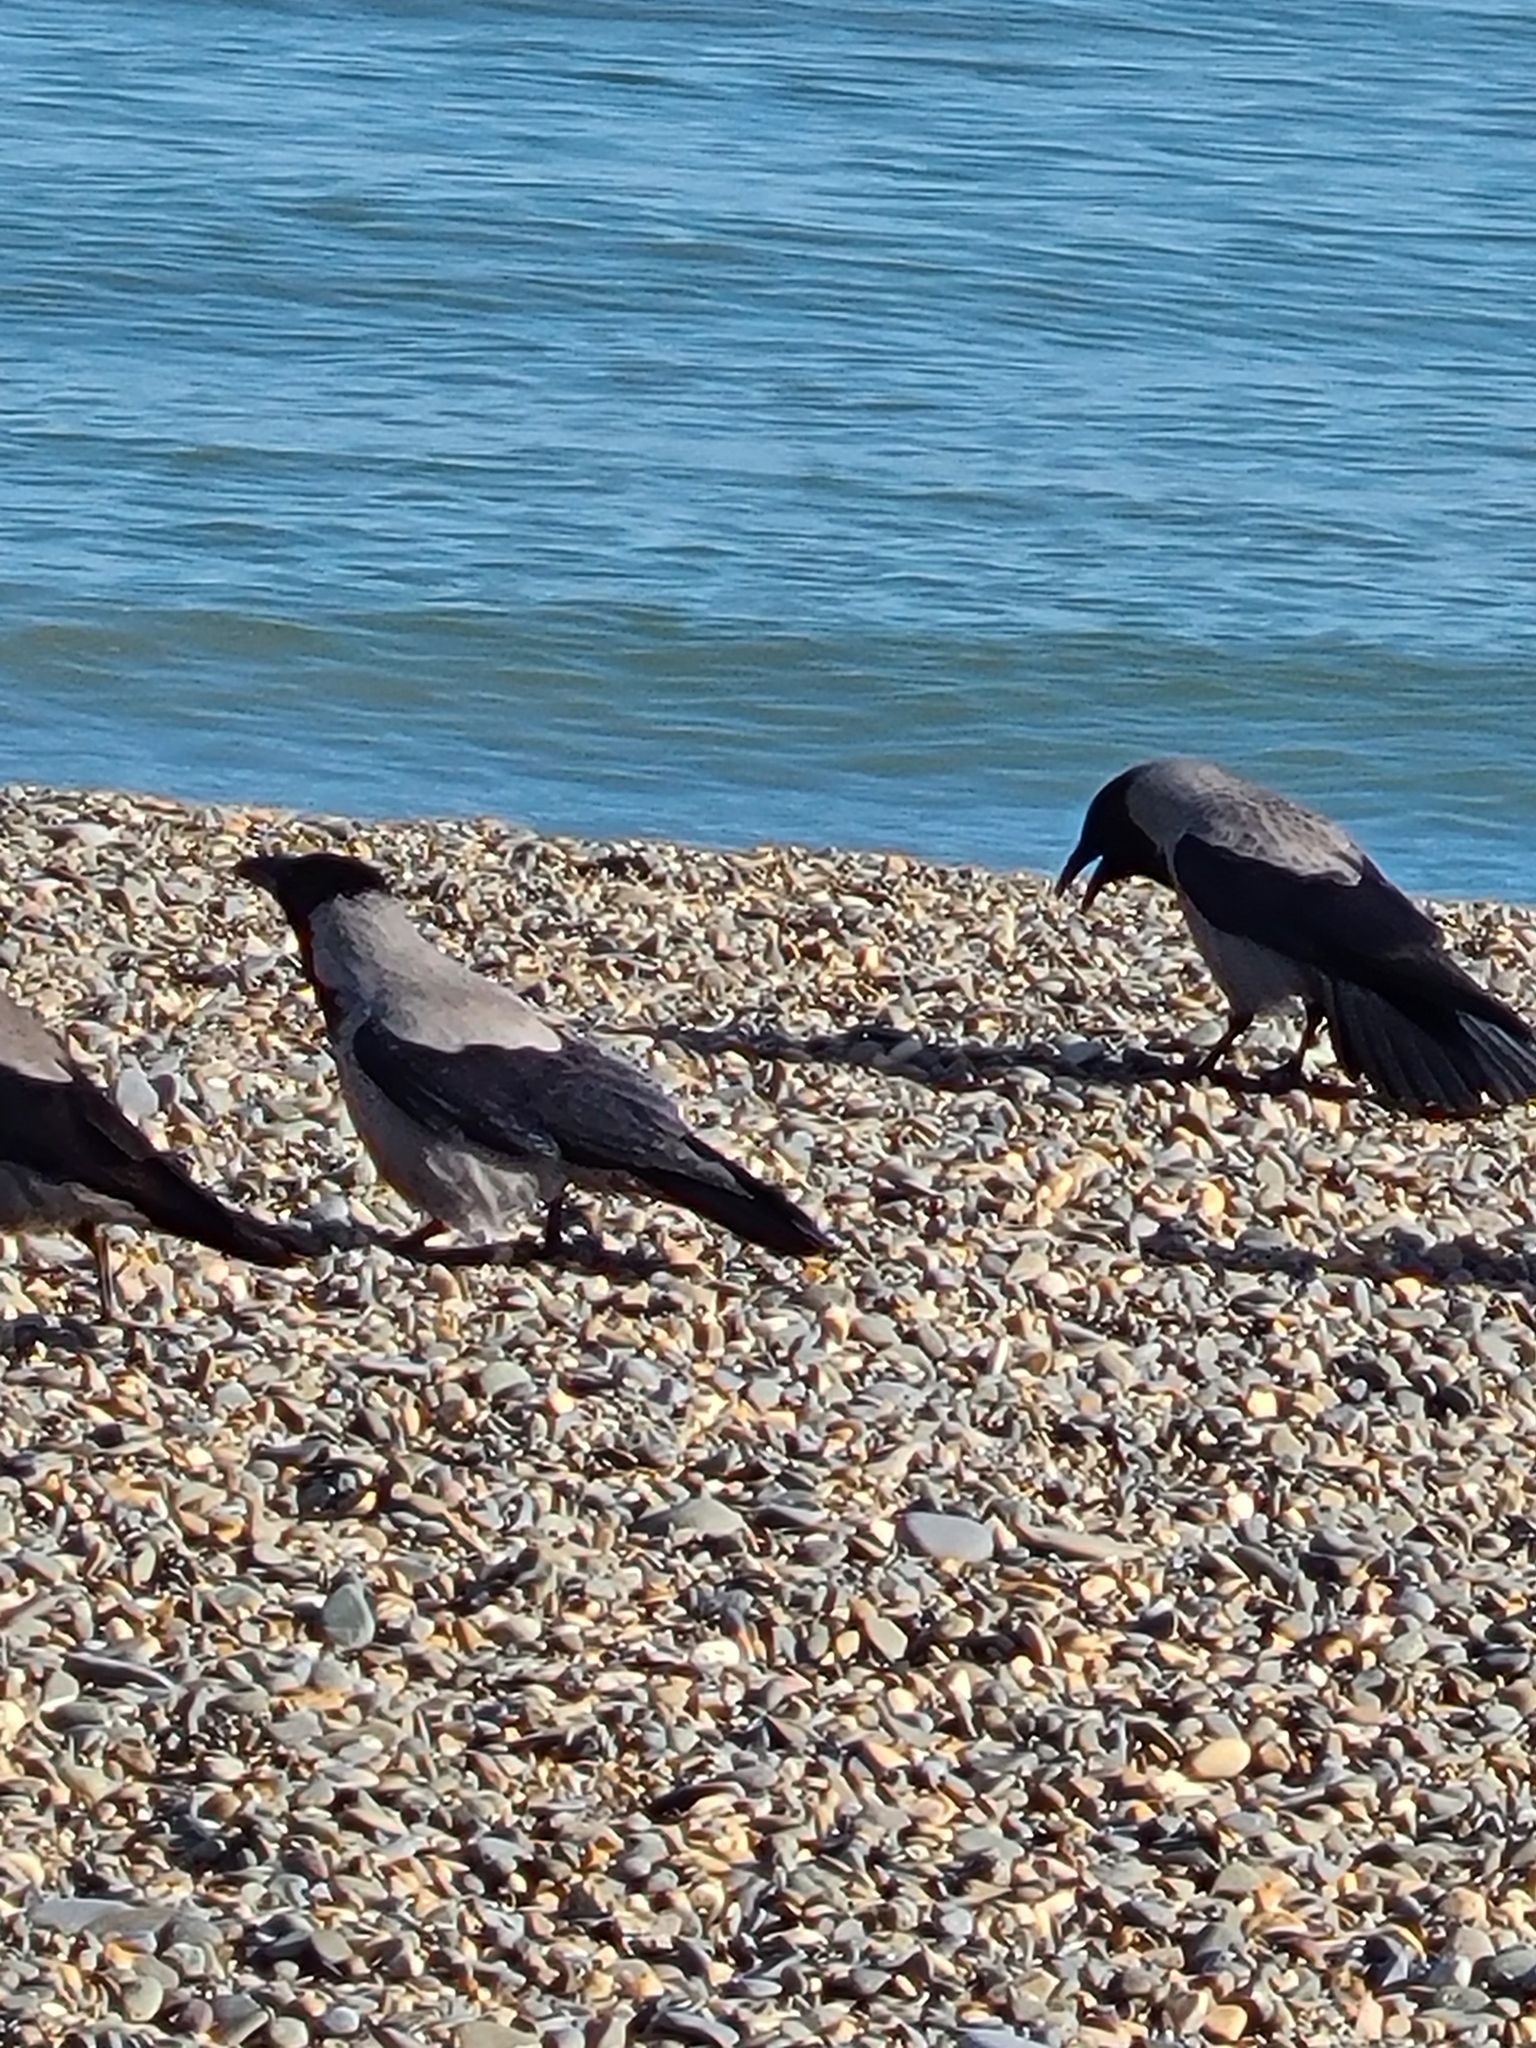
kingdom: Animalia
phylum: Chordata
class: Aves
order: Passeriformes
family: Corvidae
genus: Corvus
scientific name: Corvus cornix
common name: Hooded crow
